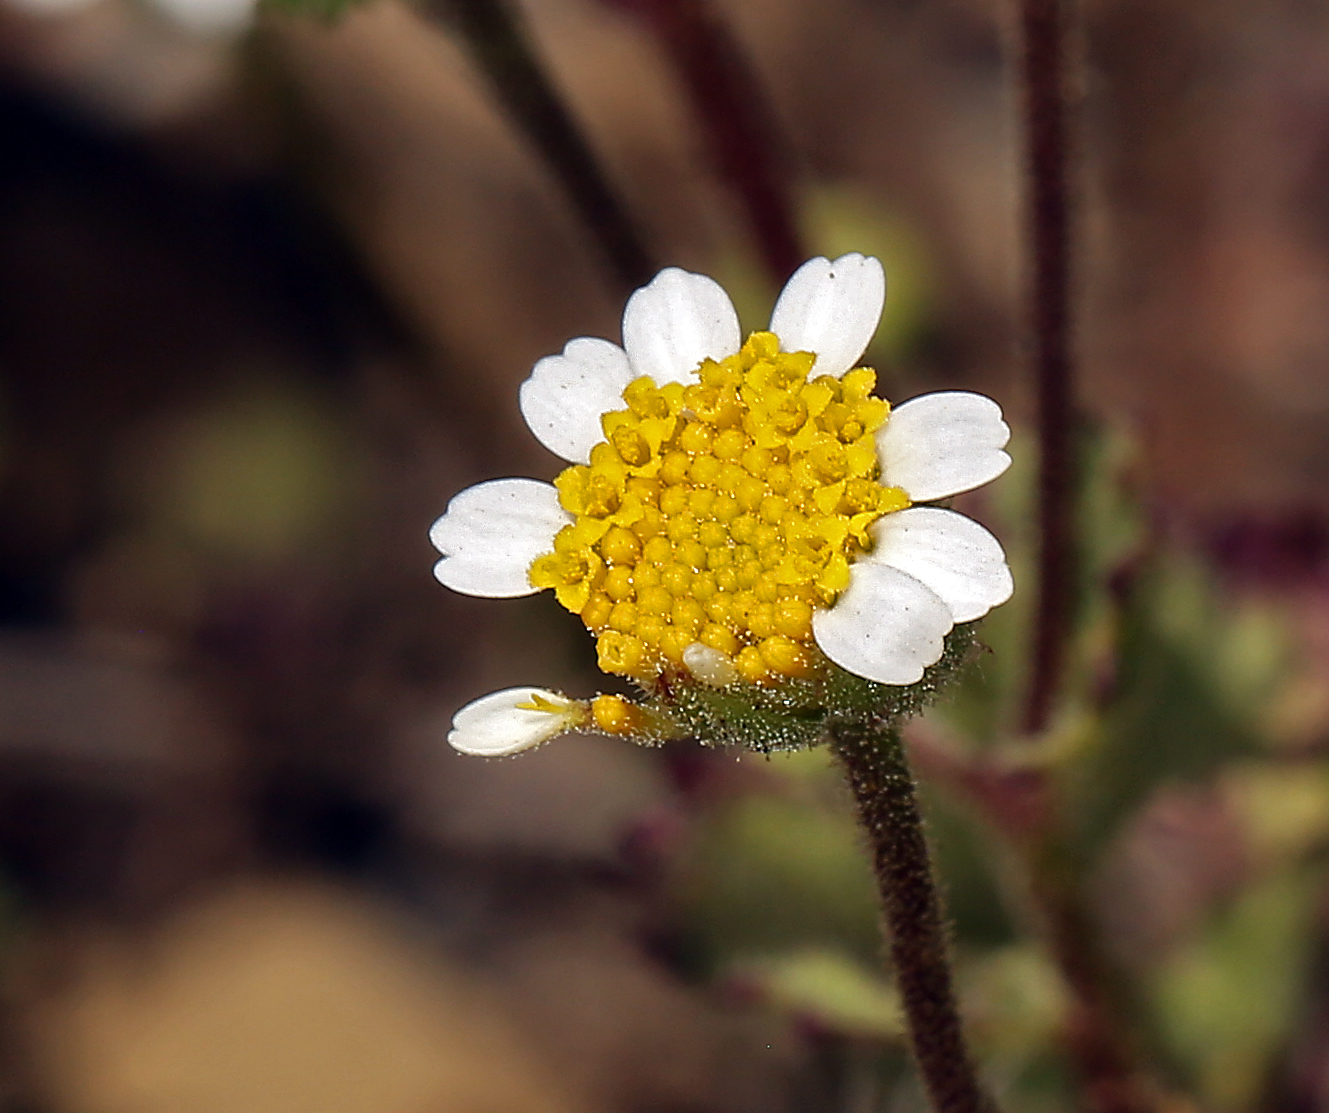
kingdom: Plantae
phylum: Tracheophyta
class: Magnoliopsida
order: Asterales
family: Asteraceae
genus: Laphamia
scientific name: Laphamia emoryi
